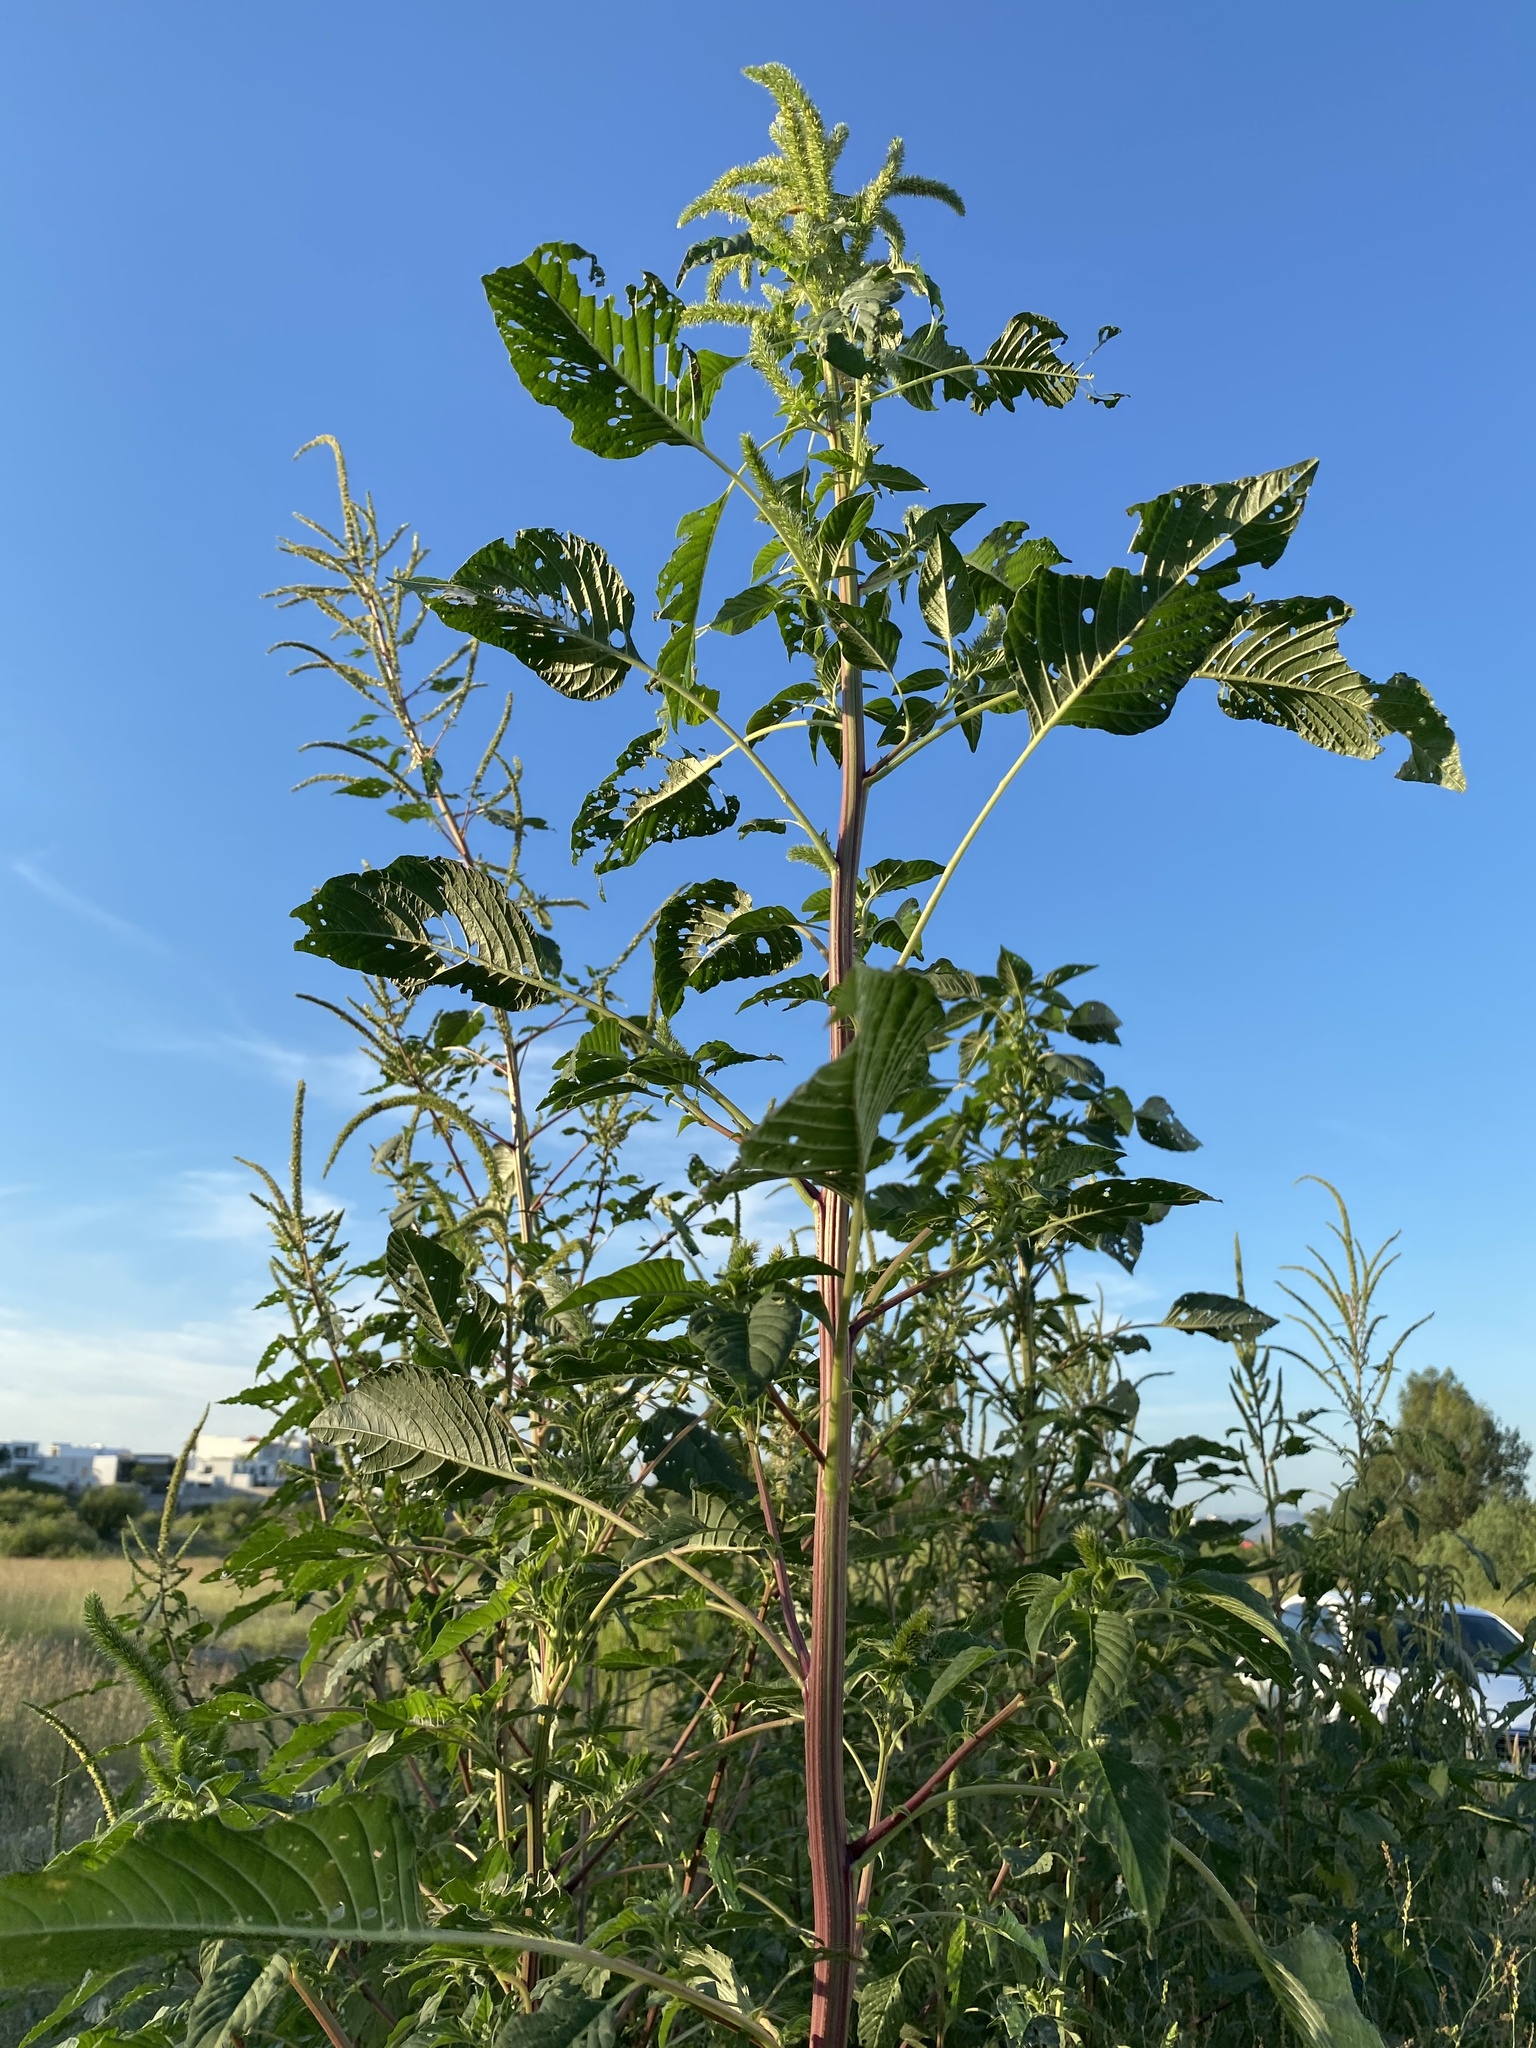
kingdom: Plantae
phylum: Tracheophyta
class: Magnoliopsida
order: Caryophyllales
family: Amaranthaceae
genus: Amaranthus
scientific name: Amaranthus palmeri
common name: Dioecious amaranth
